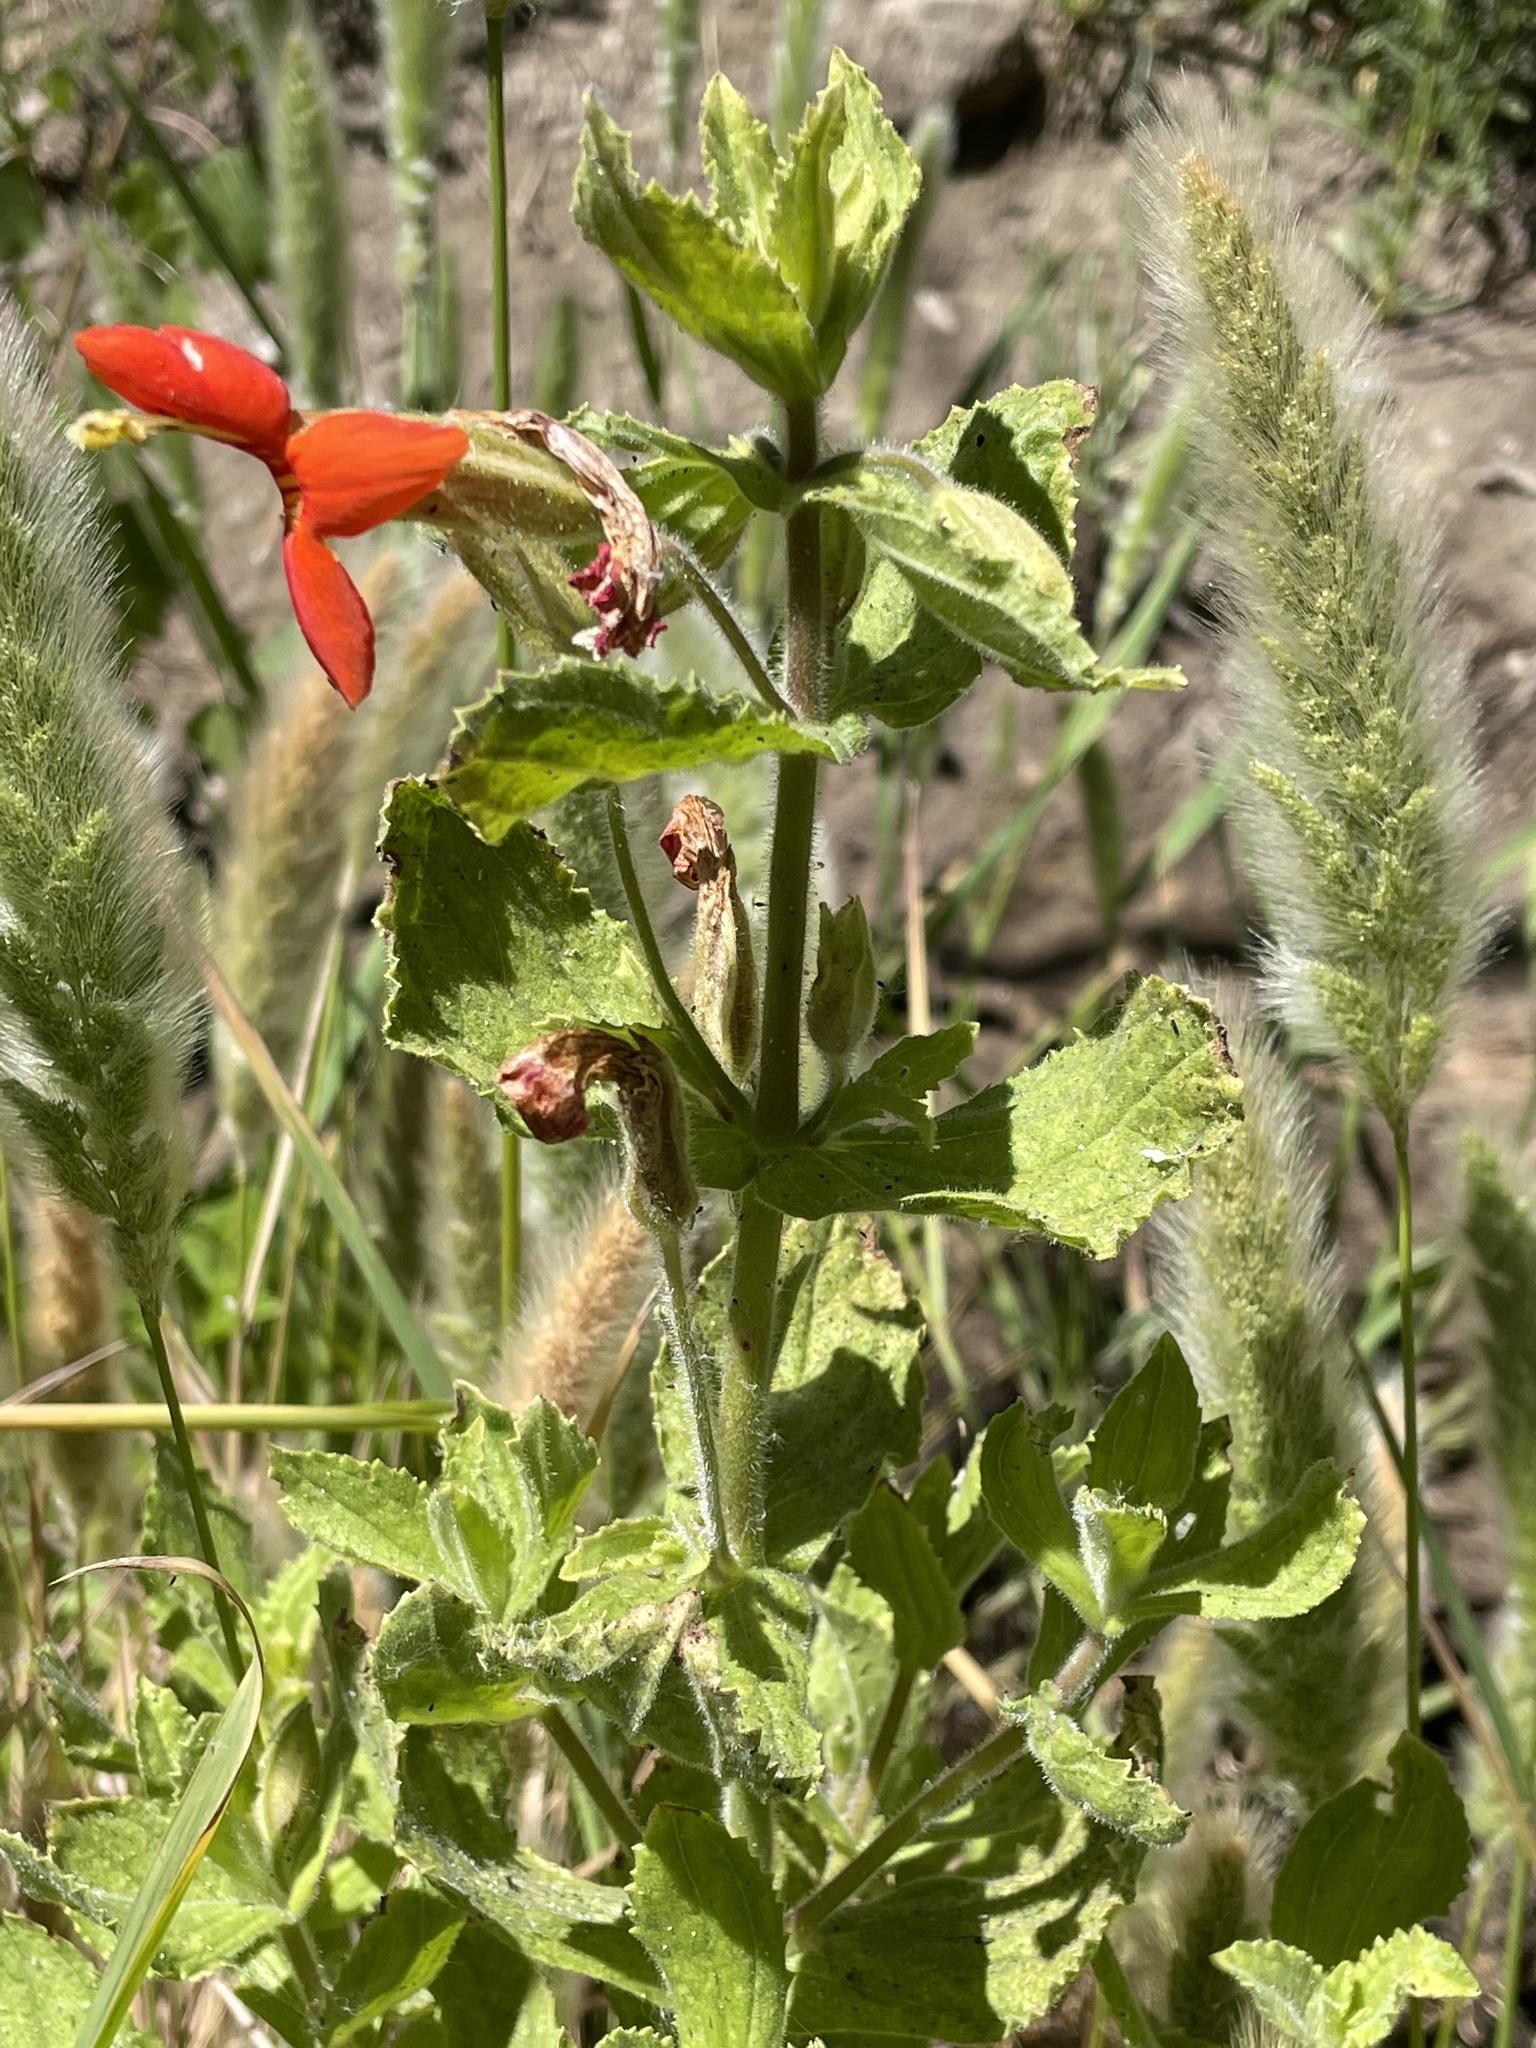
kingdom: Plantae
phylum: Tracheophyta
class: Magnoliopsida
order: Lamiales
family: Phrymaceae
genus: Erythranthe
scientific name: Erythranthe cardinalis
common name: Scarlet monkey-flower
